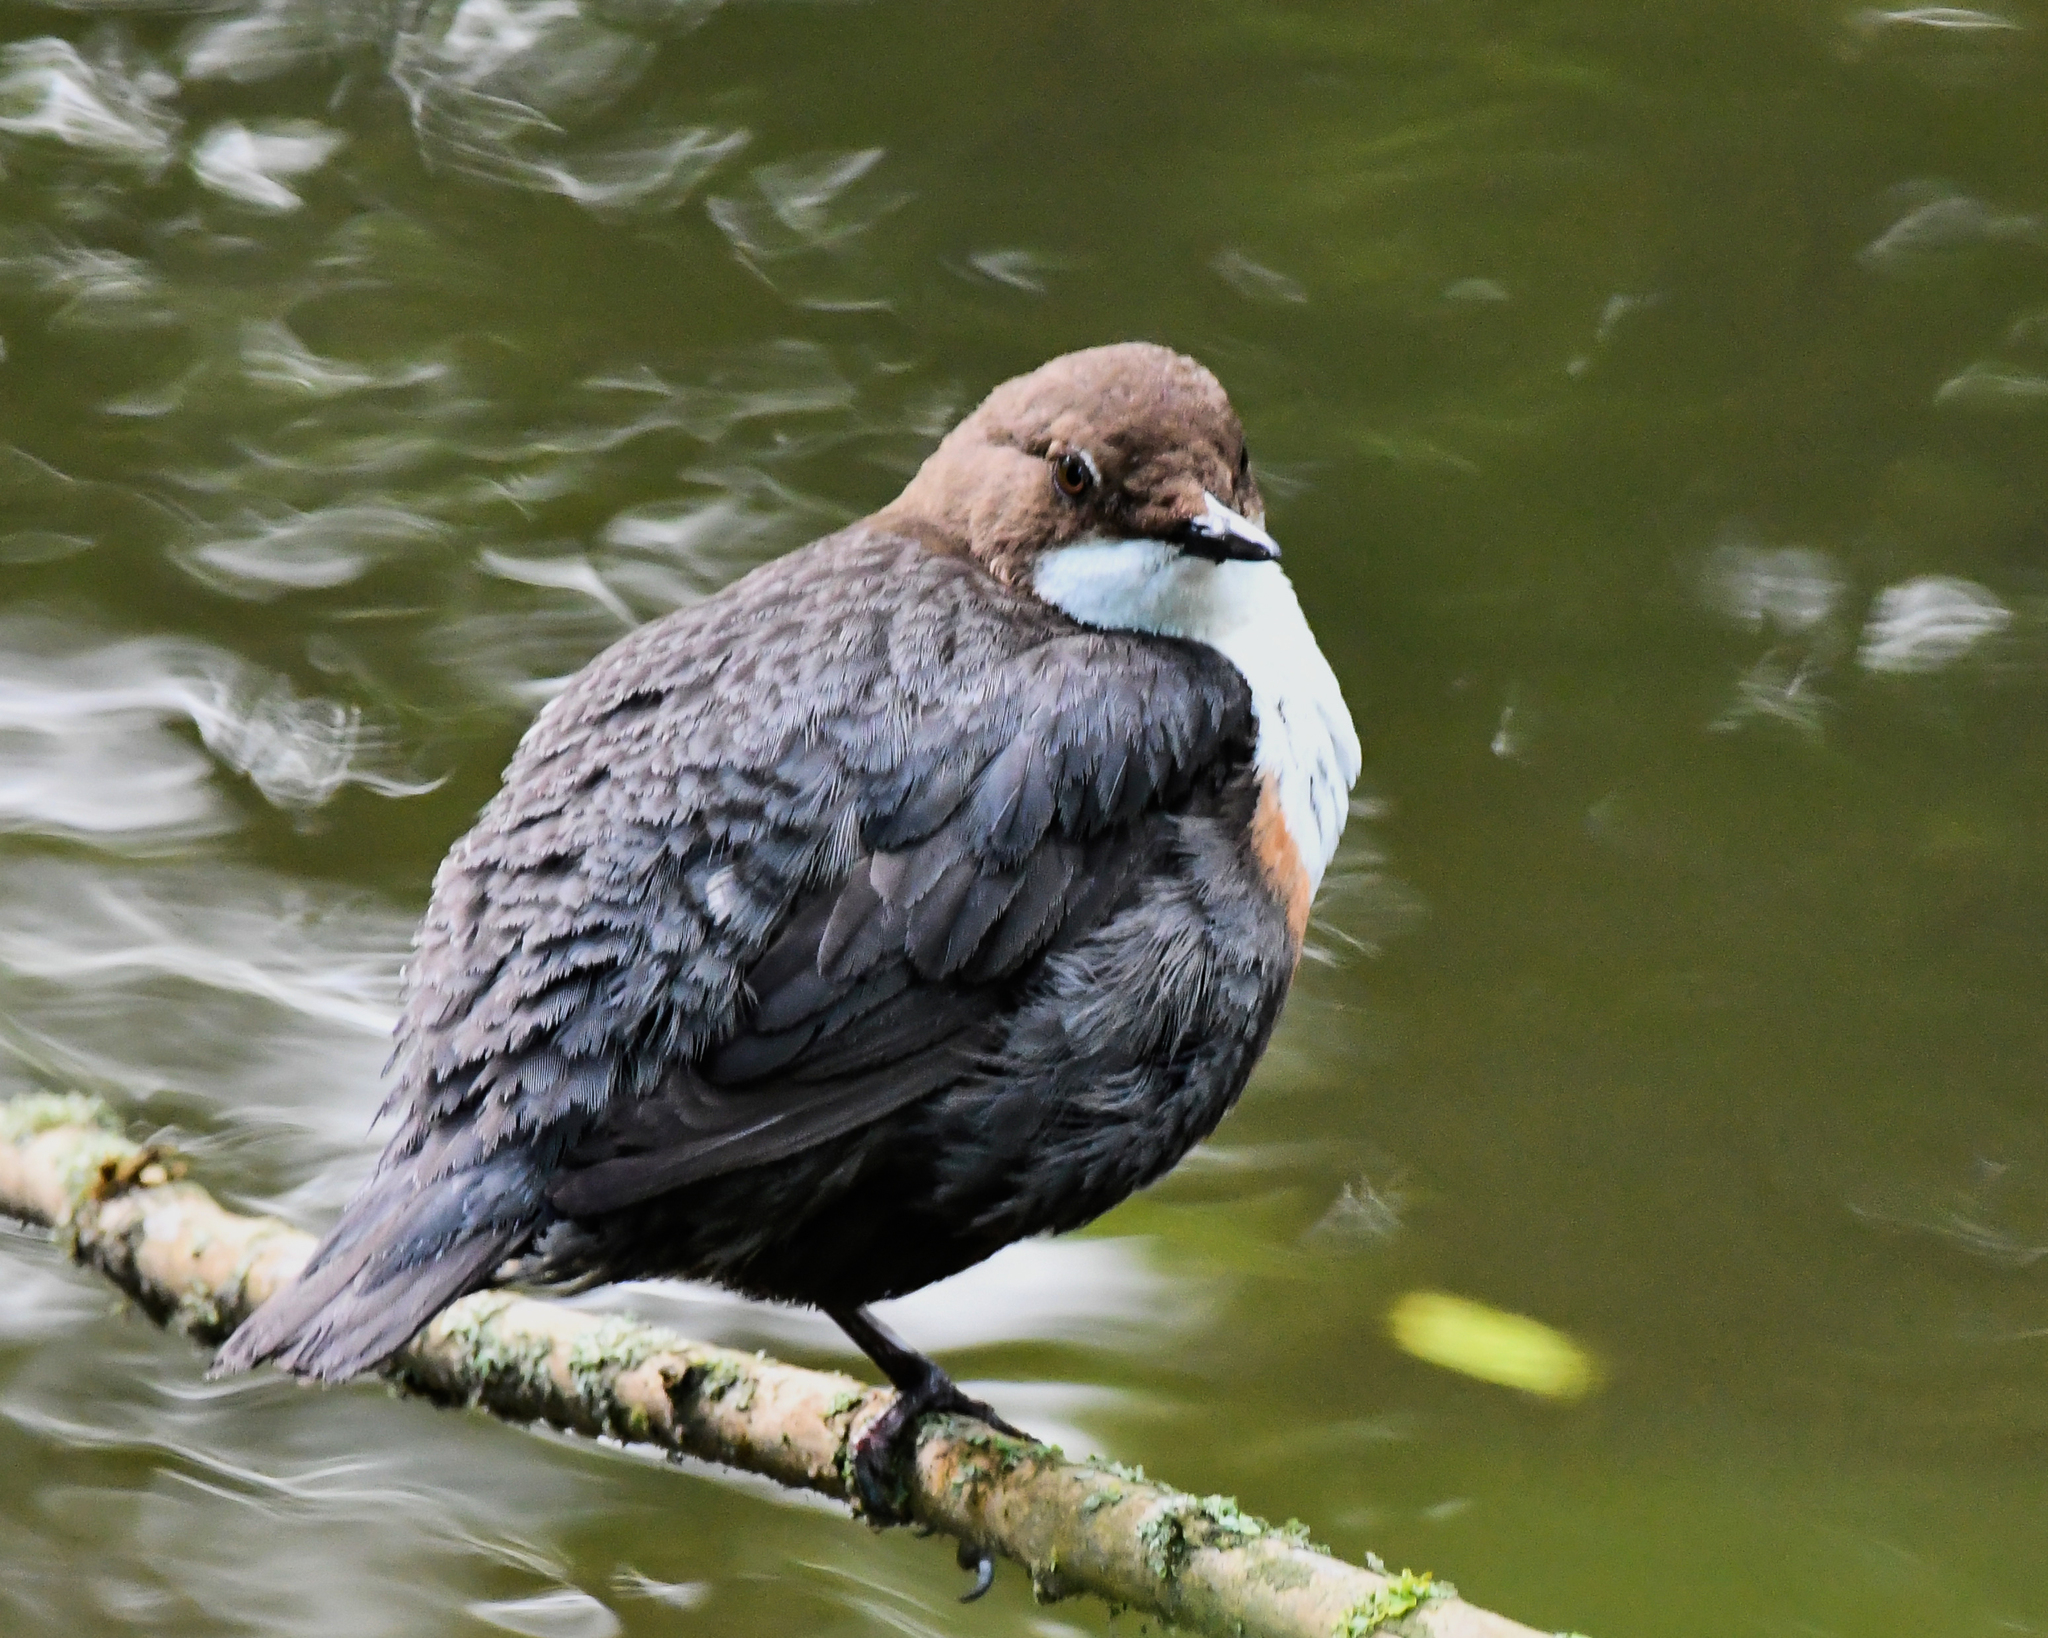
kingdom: Animalia
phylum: Chordata
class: Aves
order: Passeriformes
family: Cinclidae
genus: Cinclus
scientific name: Cinclus cinclus
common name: White-throated dipper
